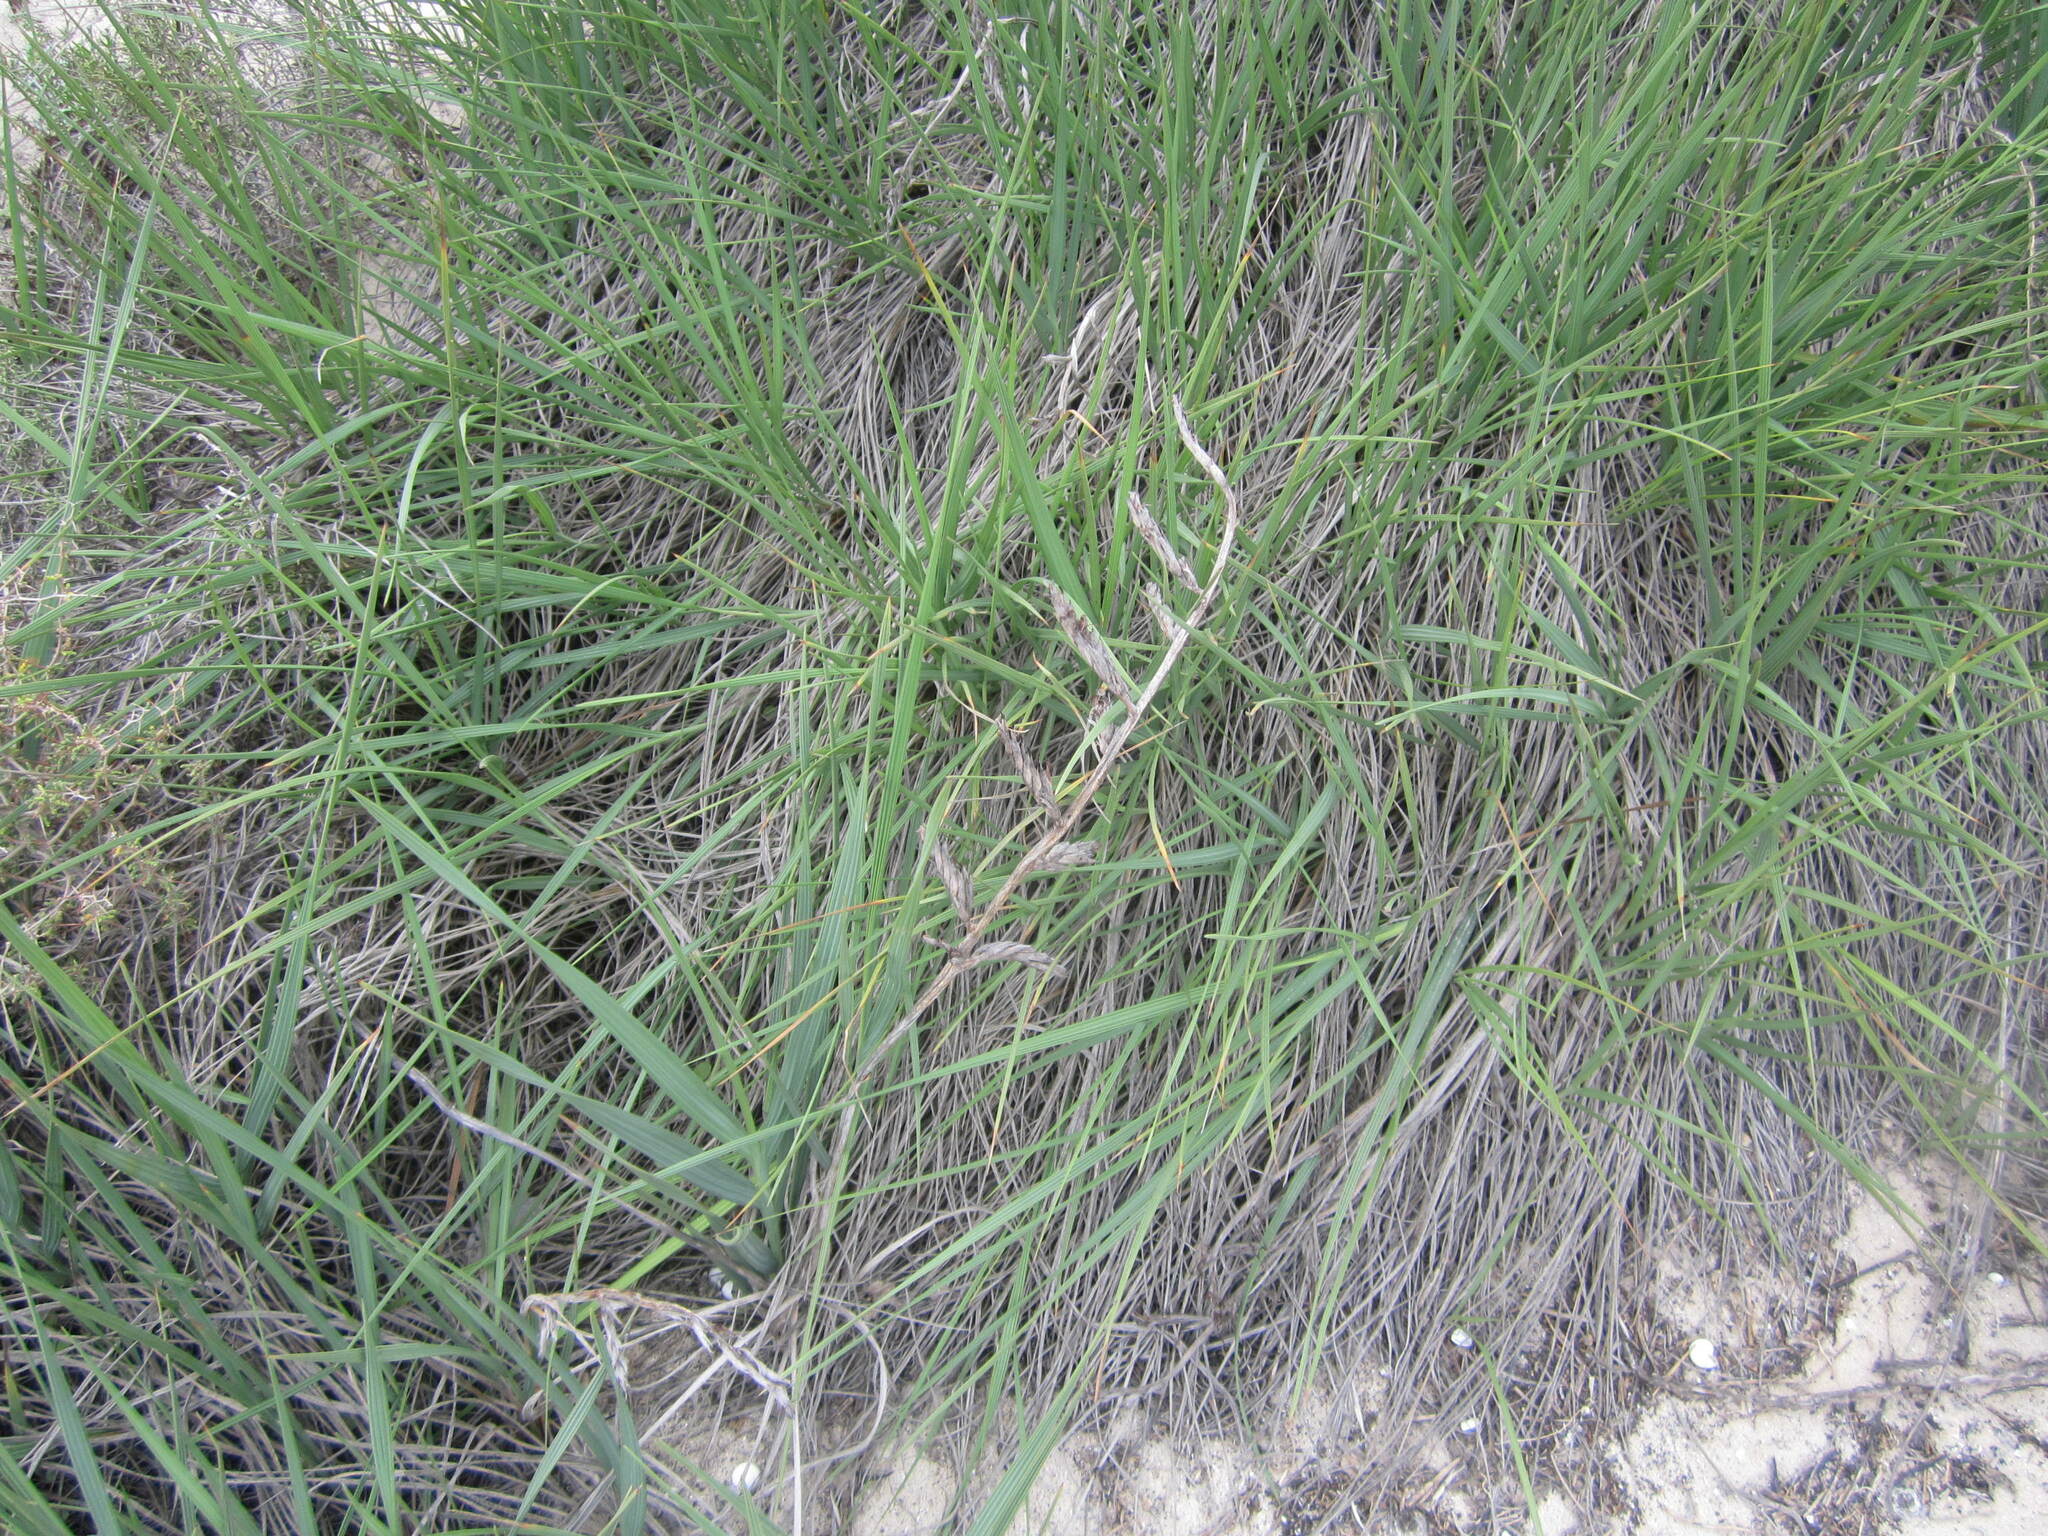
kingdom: Plantae
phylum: Tracheophyta
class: Liliopsida
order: Asparagales
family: Iridaceae
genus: Babiana
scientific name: Babiana hirsuta
